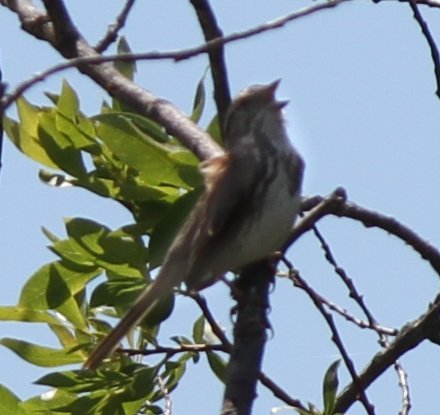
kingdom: Animalia
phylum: Chordata
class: Aves
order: Passeriformes
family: Passerellidae
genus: Melospiza
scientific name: Melospiza melodia
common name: Song sparrow
